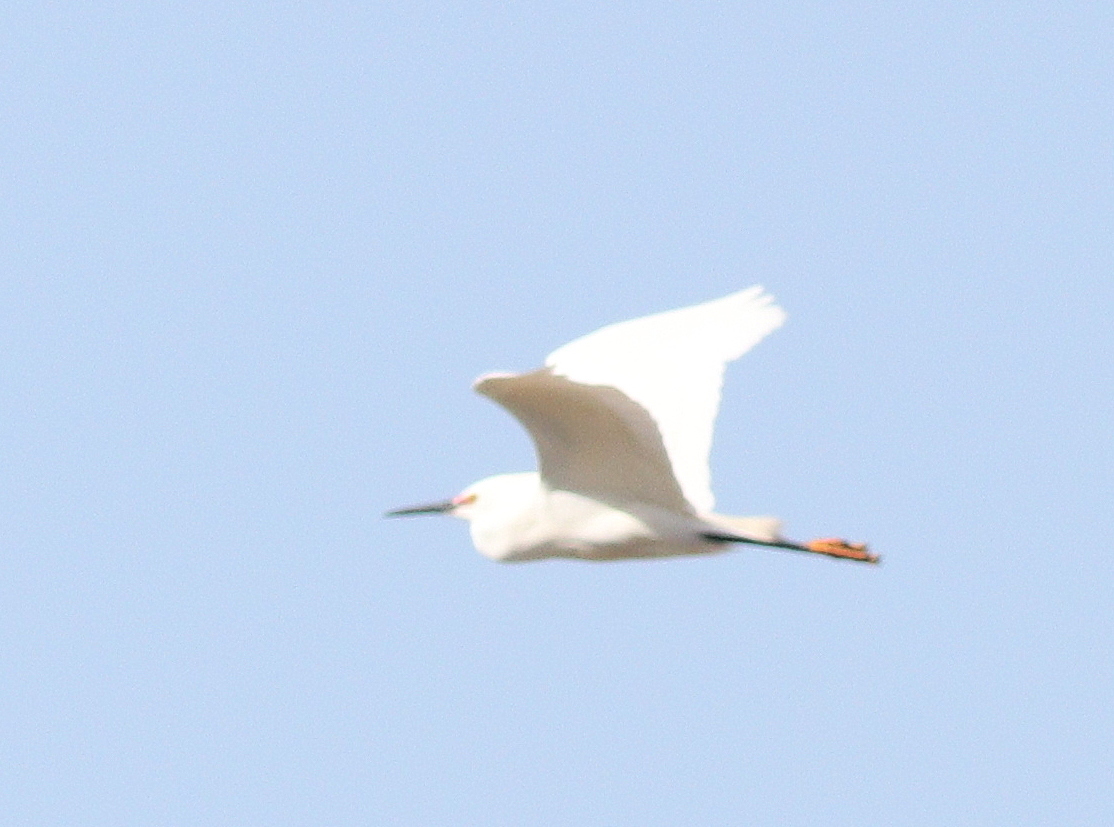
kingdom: Animalia
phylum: Chordata
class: Aves
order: Pelecaniformes
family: Ardeidae
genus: Egretta
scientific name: Egretta thula
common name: Snowy egret
